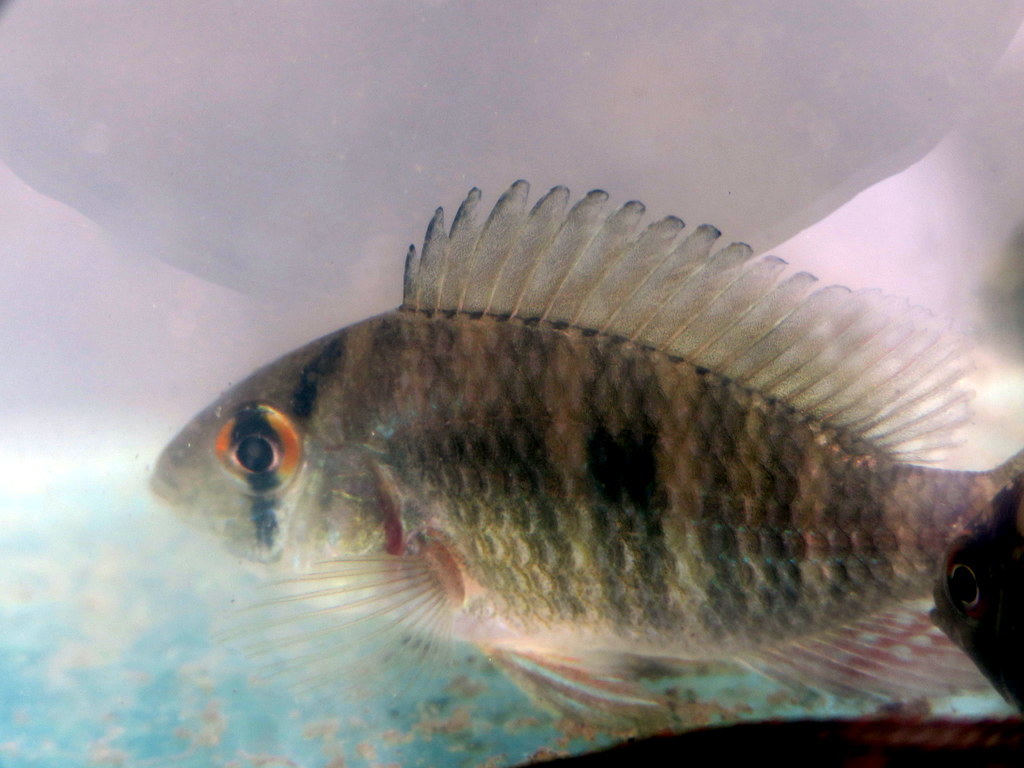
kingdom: Animalia
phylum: Chordata
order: Perciformes
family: Cichlidae
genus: Gymnogeophagus
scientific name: Gymnogeophagus meridionalis
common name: Earth eater
